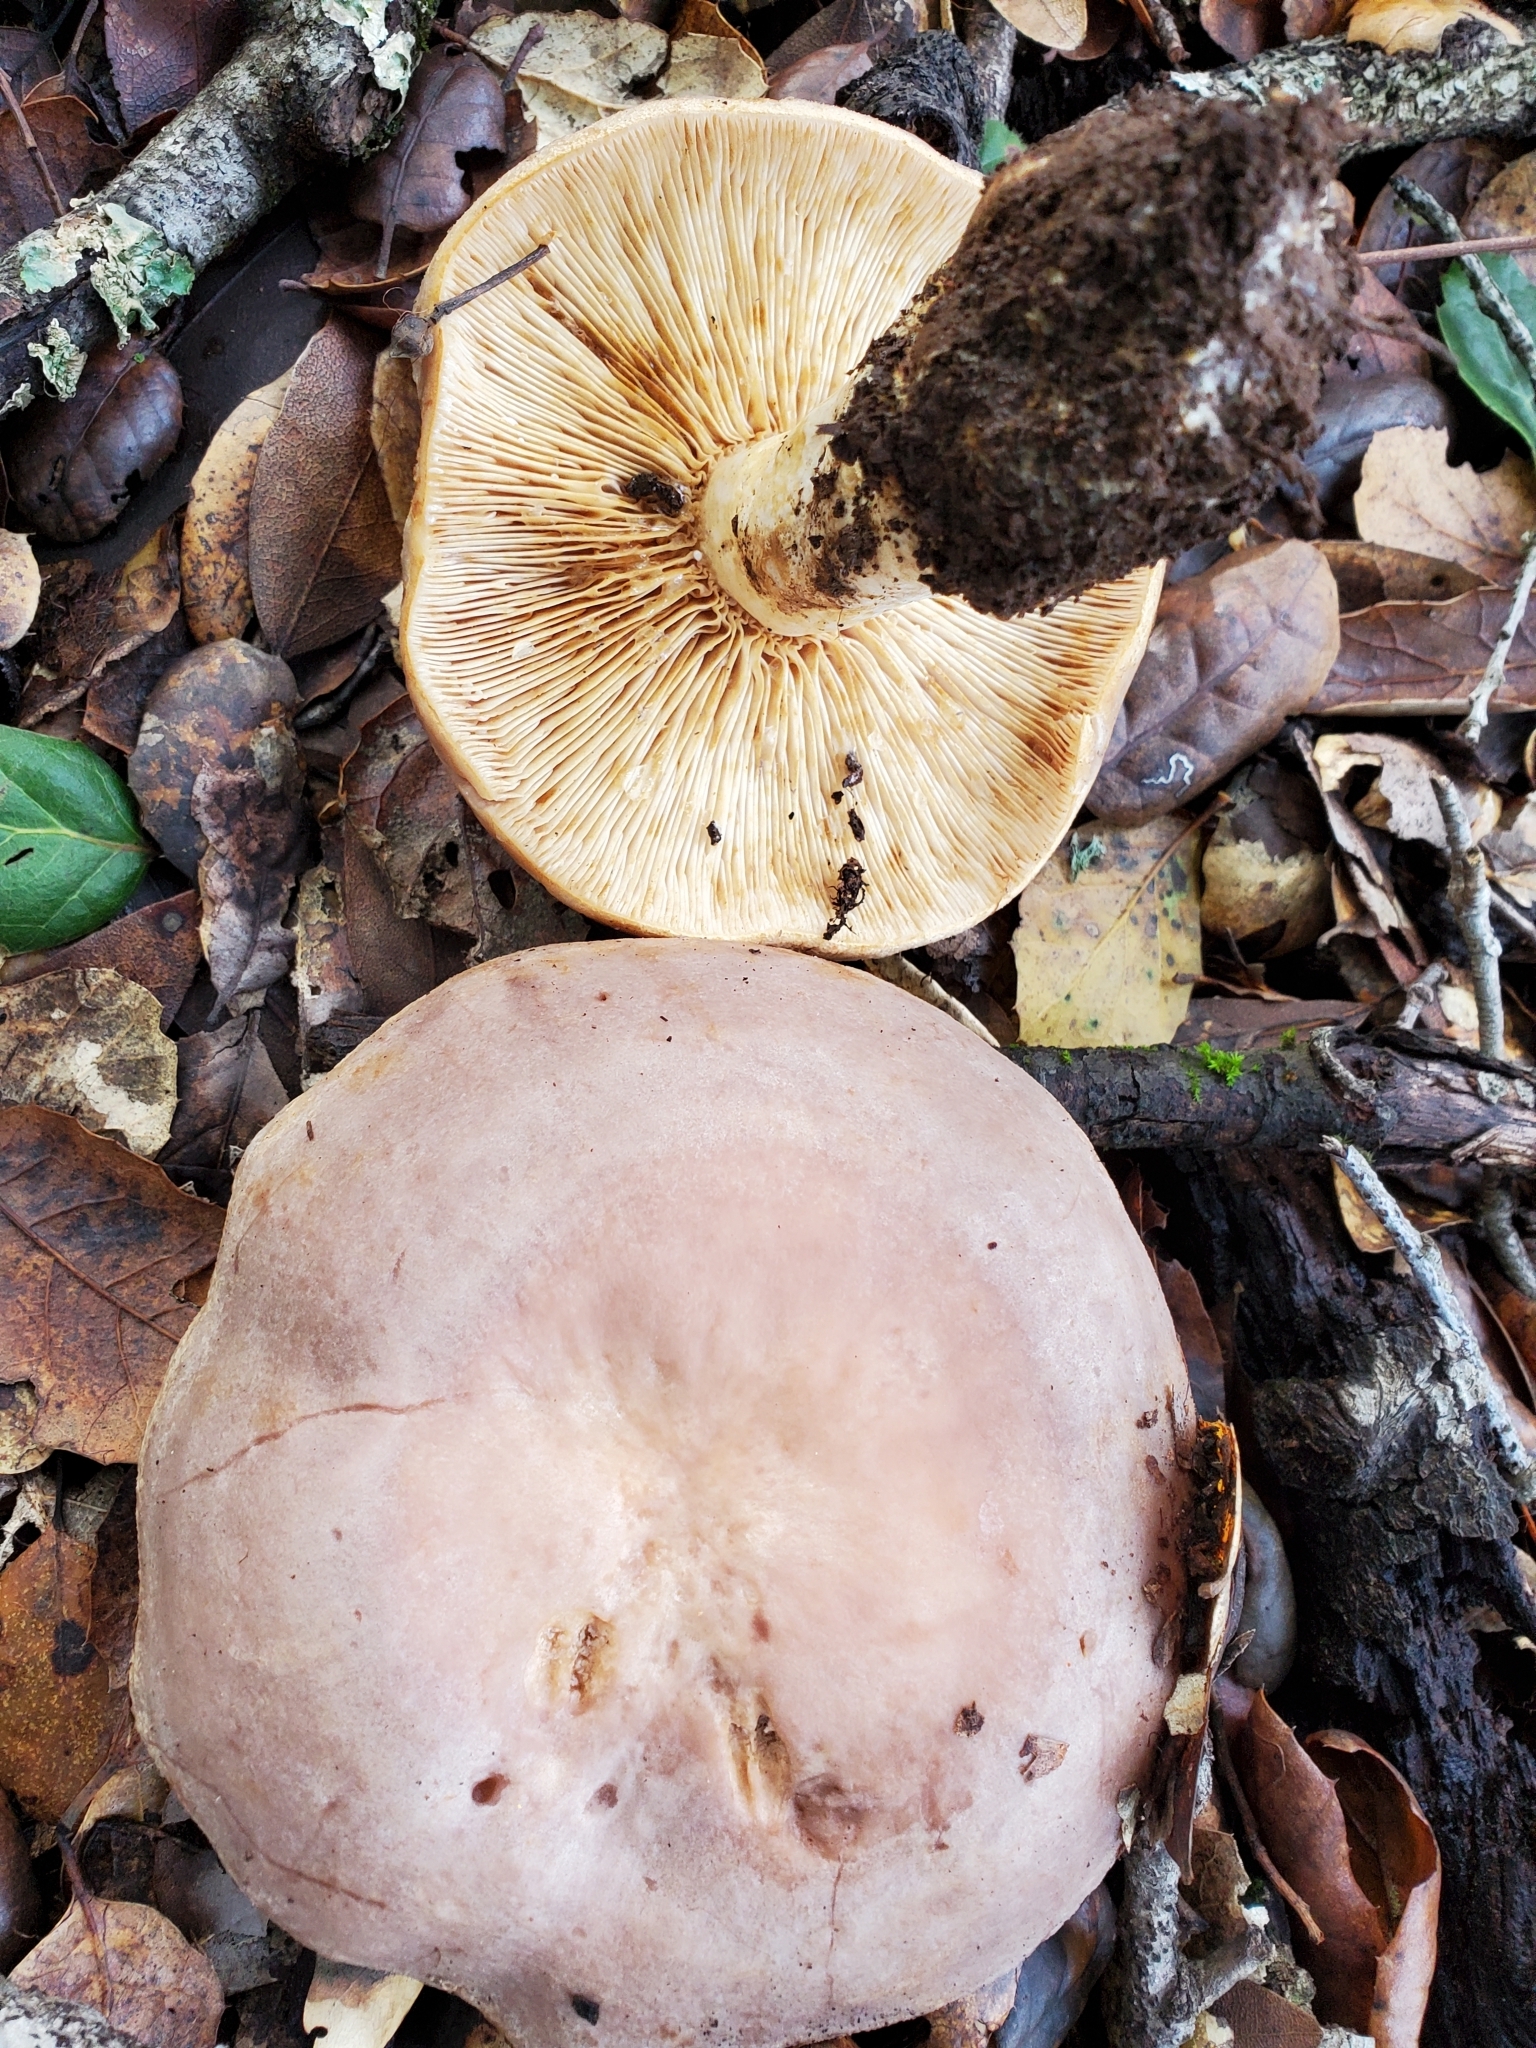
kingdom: Fungi
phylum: Basidiomycota
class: Agaricomycetes
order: Russulales
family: Russulaceae
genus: Lactarius
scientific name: Lactarius argillaceifolius
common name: Clay-gilled milkcap
